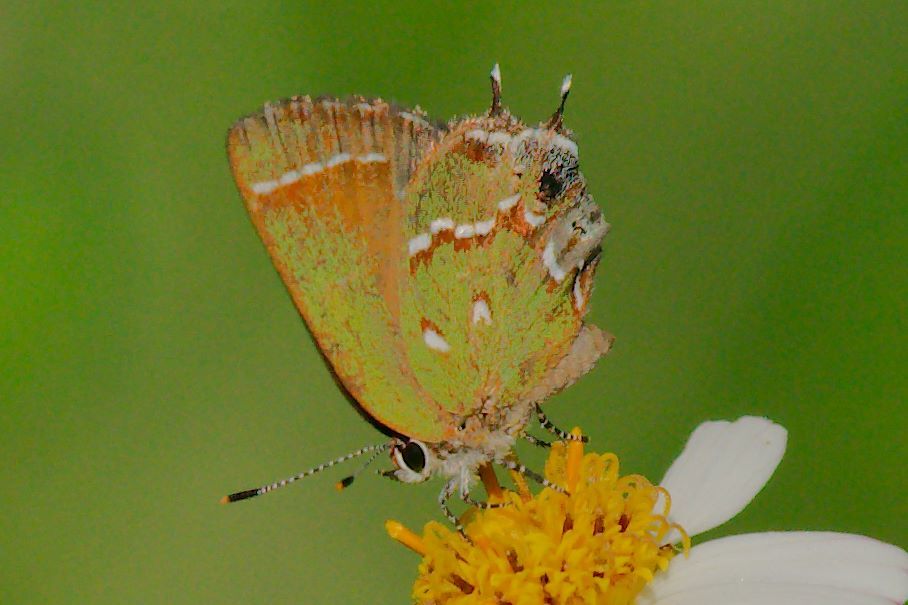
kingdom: Animalia
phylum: Arthropoda
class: Insecta
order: Lepidoptera
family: Lycaenidae
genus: Mitoura
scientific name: Mitoura gryneus
